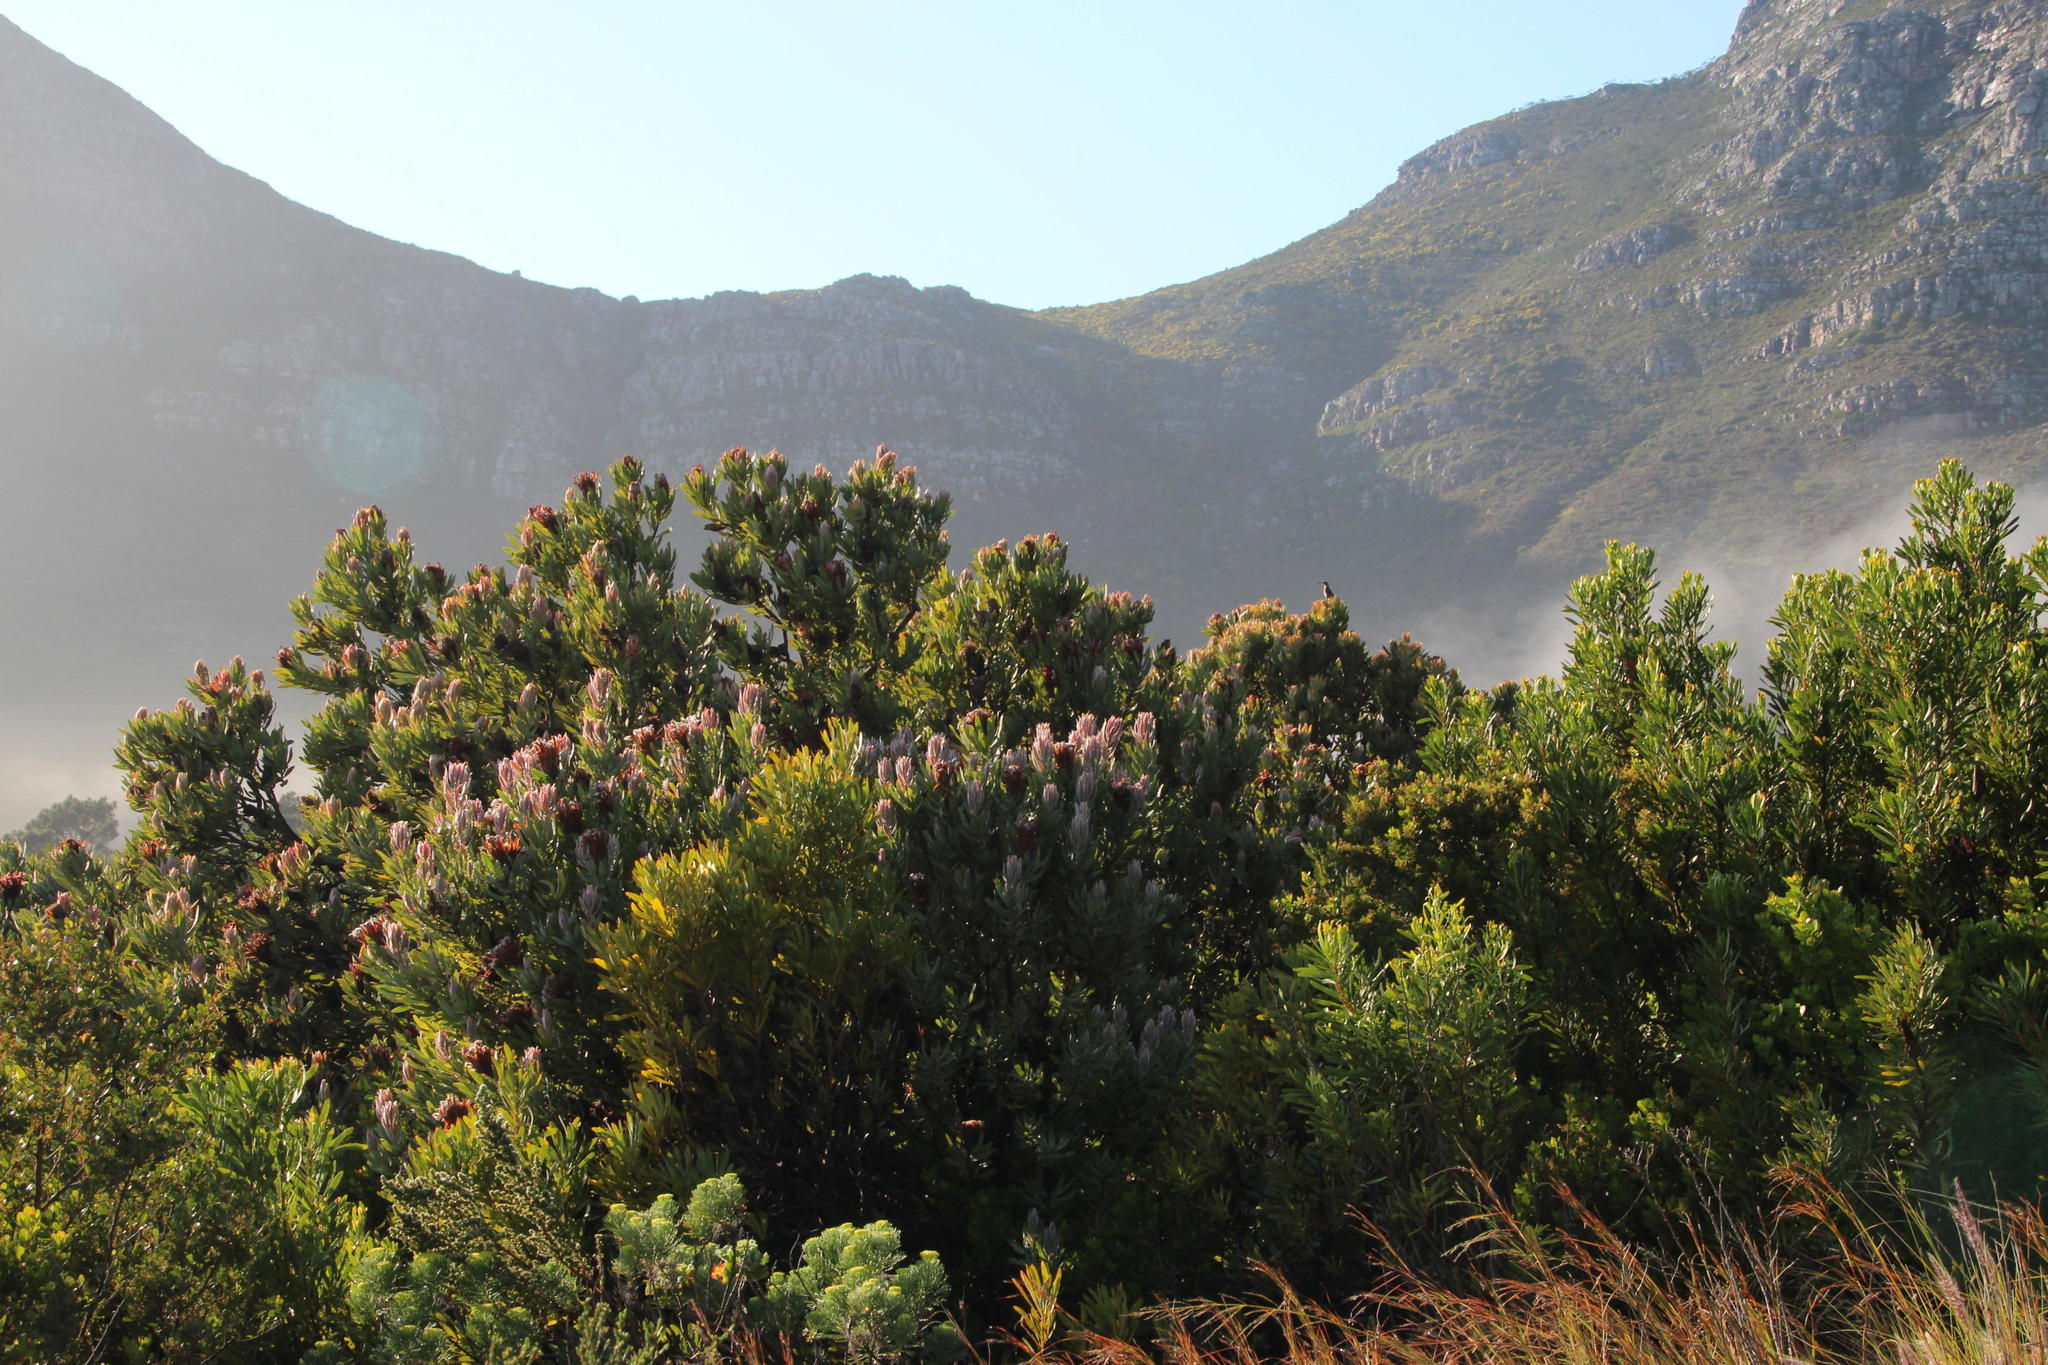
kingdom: Animalia
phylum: Chordata
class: Aves
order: Passeriformes
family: Promeropidae
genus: Promerops
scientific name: Promerops cafer
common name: Cape sugarbird
